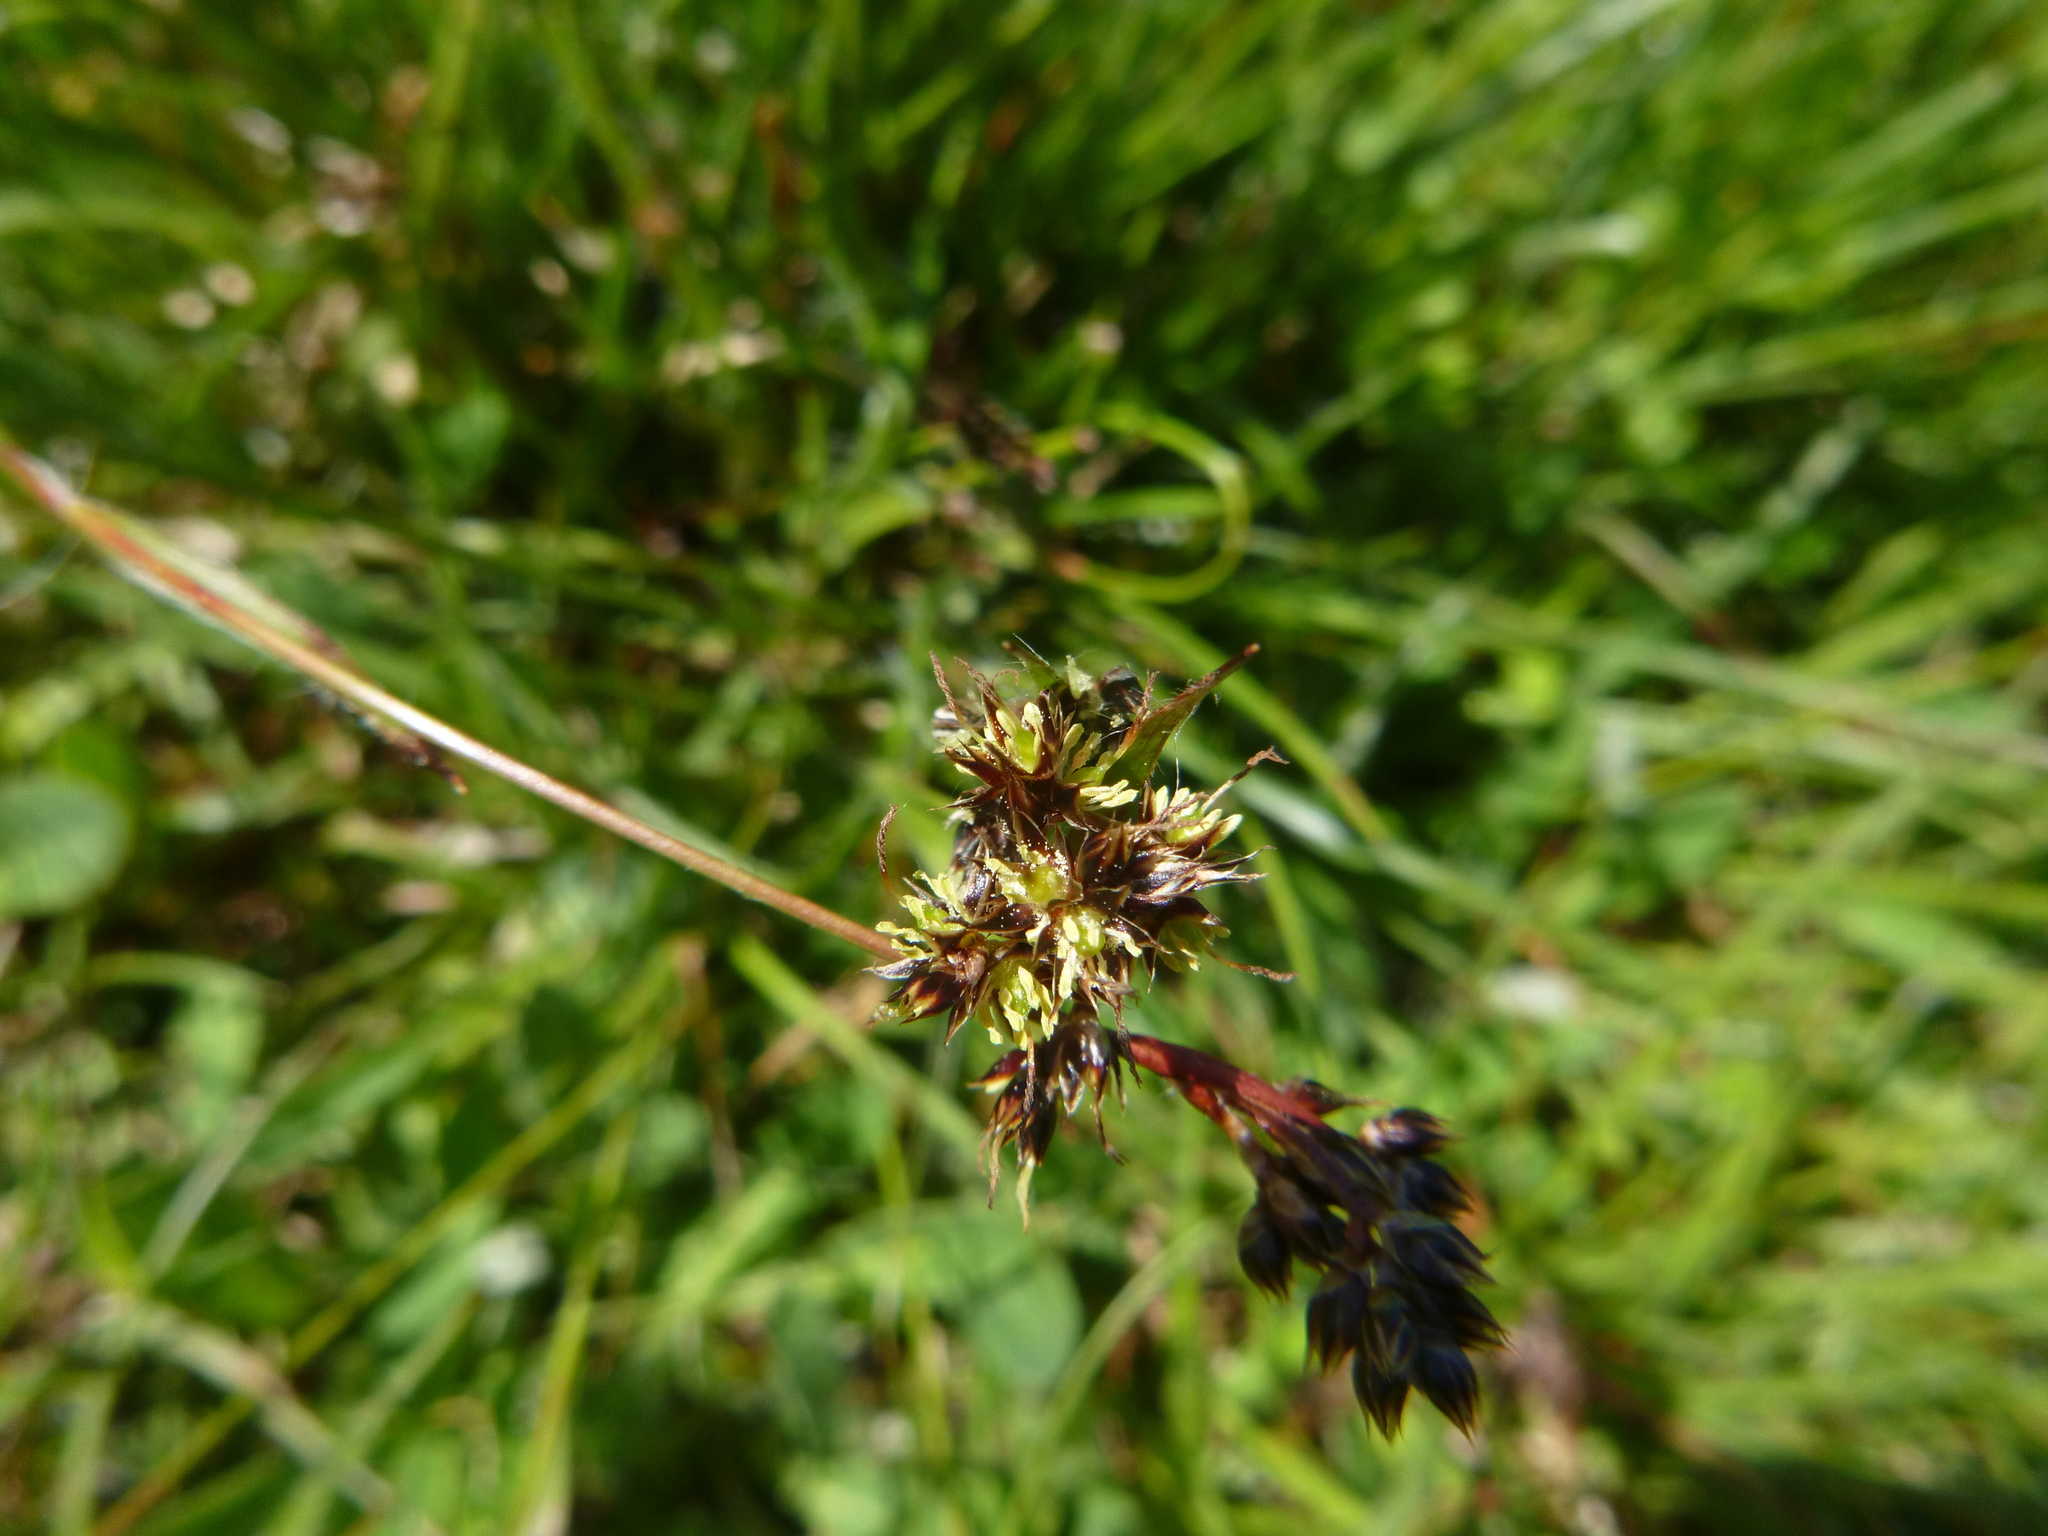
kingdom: Plantae
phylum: Tracheophyta
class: Liliopsida
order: Poales
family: Juncaceae
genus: Luzula
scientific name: Luzula campestris
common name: Field wood-rush
